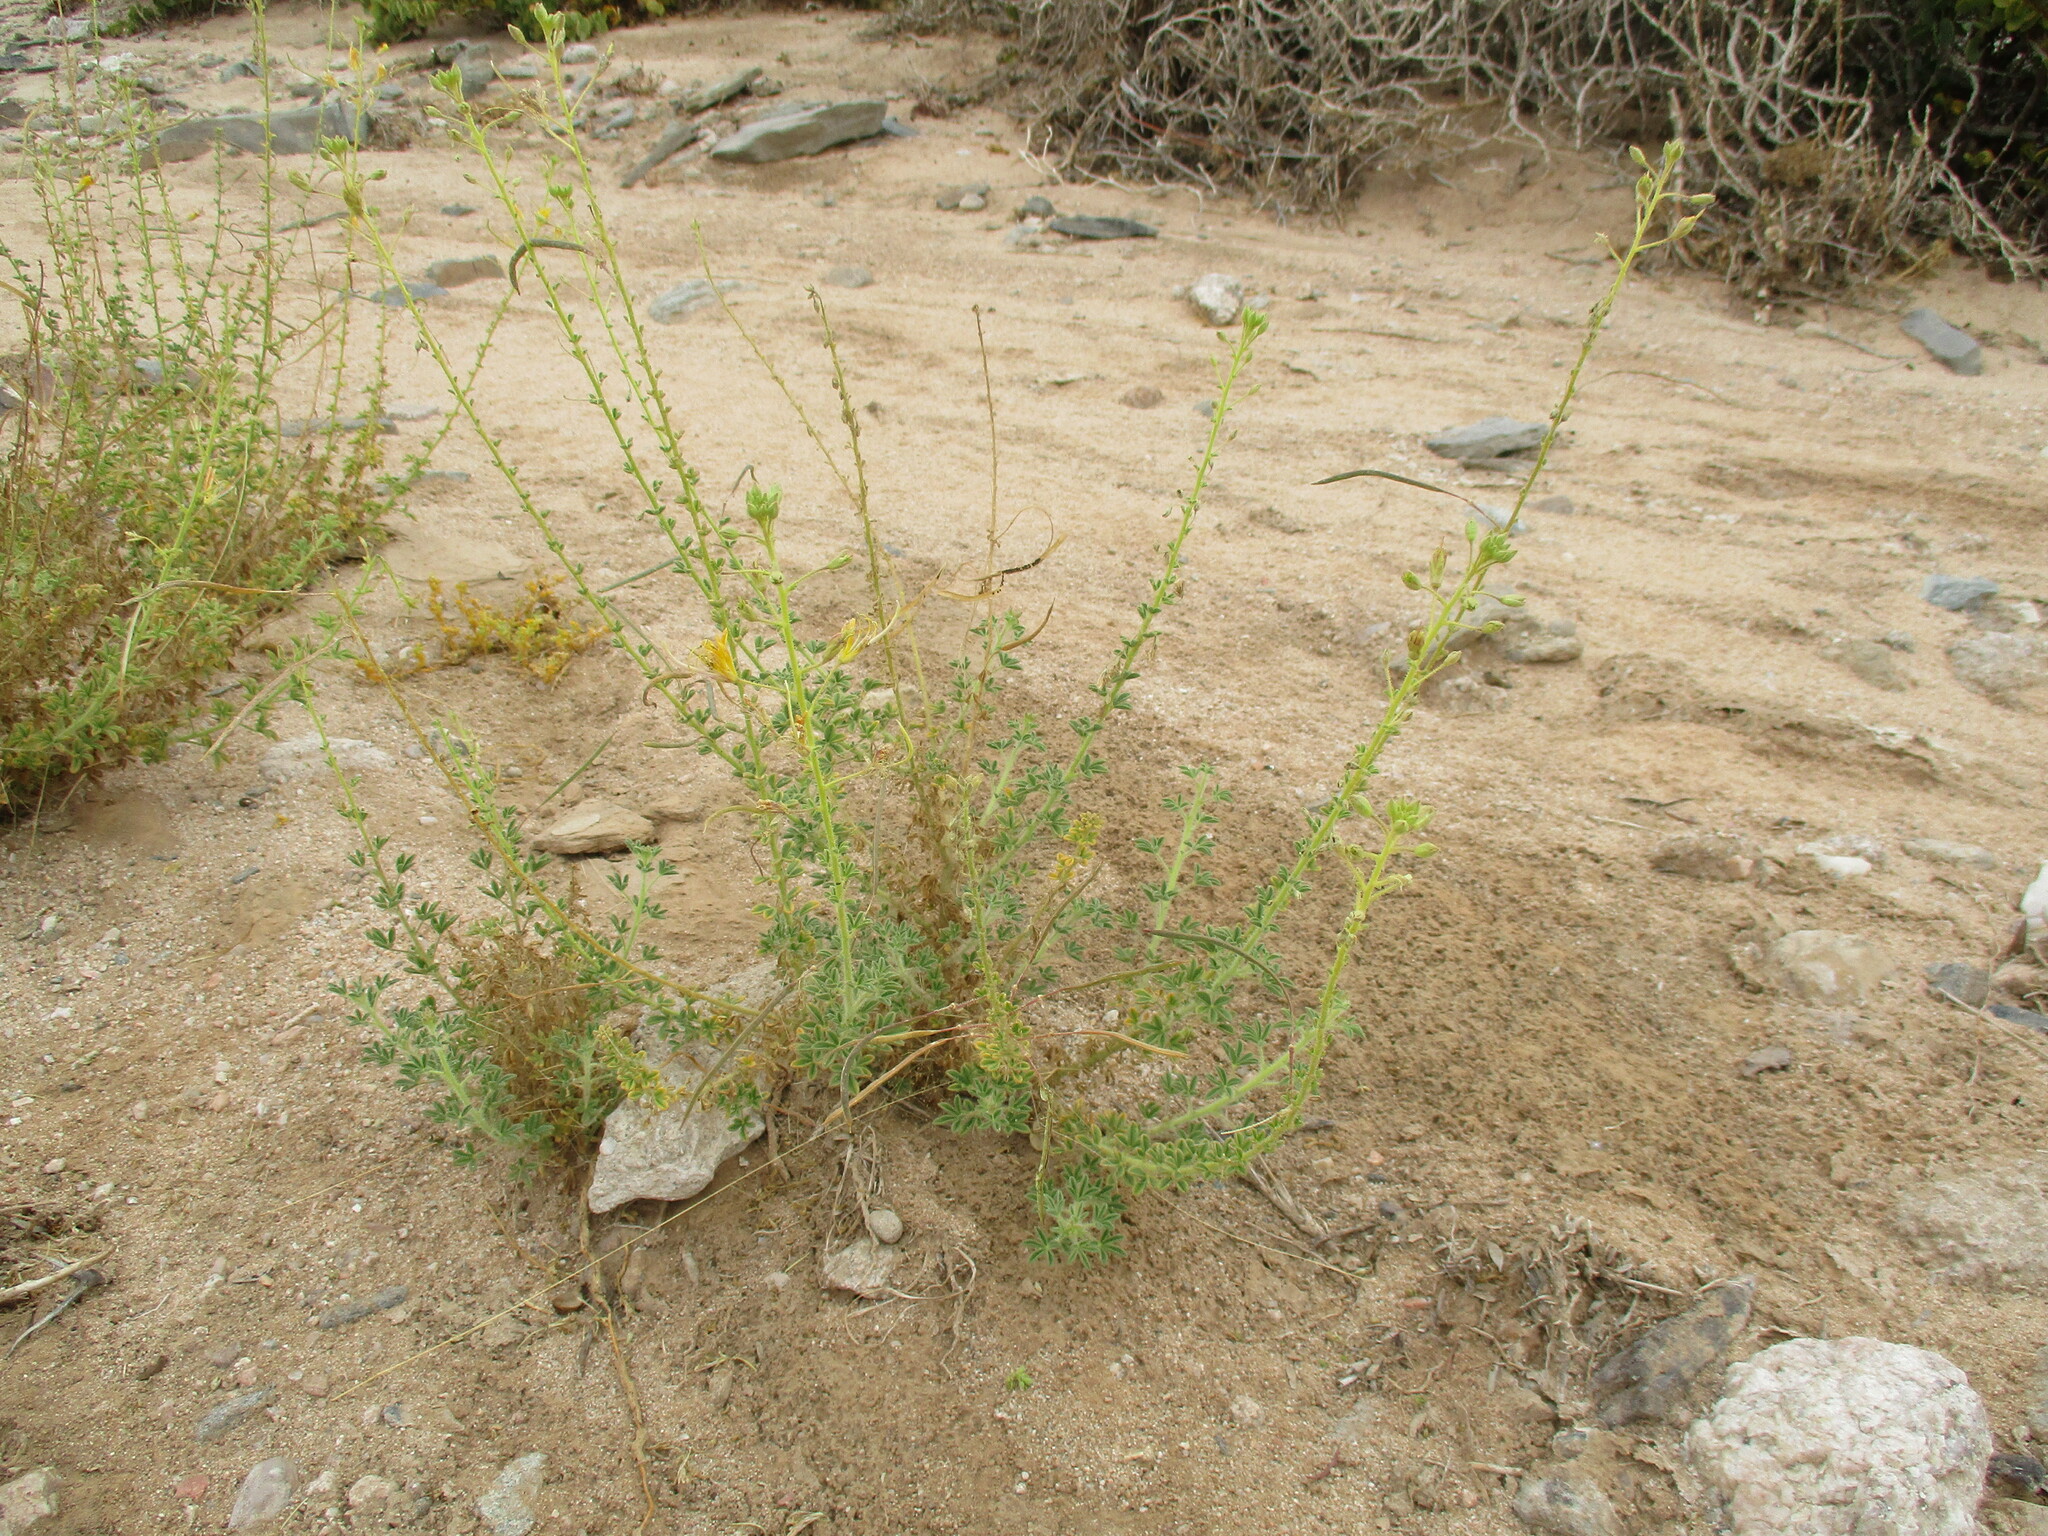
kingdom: Plantae
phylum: Tracheophyta
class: Magnoliopsida
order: Brassicales
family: Cleomaceae
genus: Cleome
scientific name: Cleome foliosa
